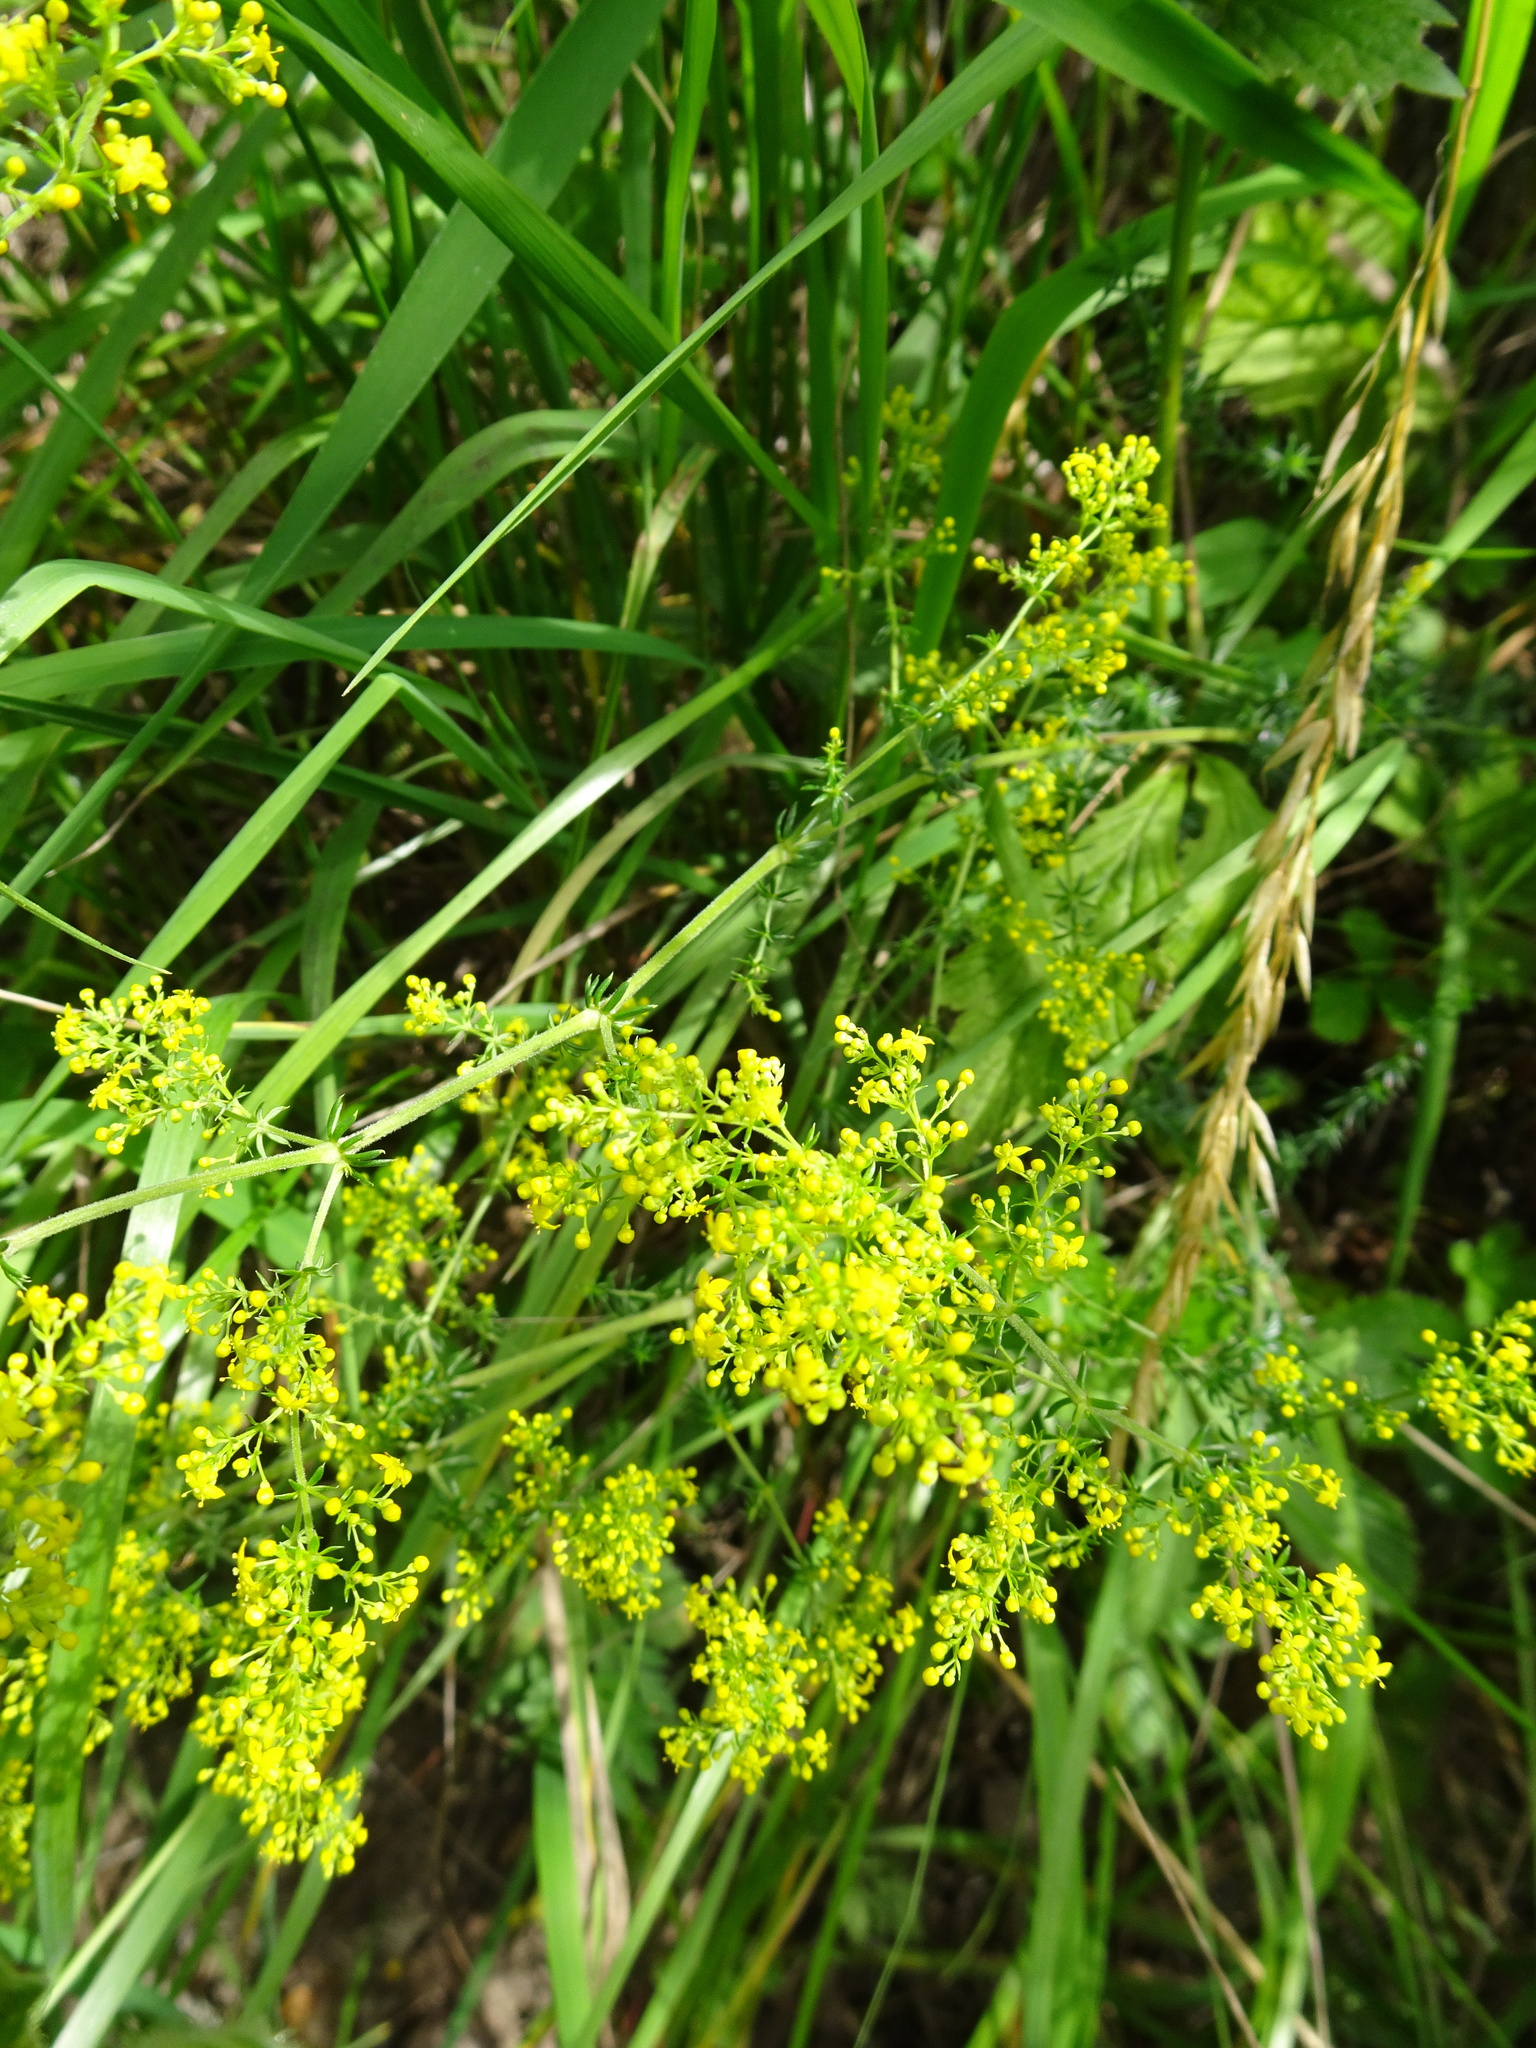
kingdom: Plantae
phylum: Tracheophyta
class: Magnoliopsida
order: Gentianales
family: Rubiaceae
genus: Galium
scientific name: Galium verum
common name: Lady's bedstraw
